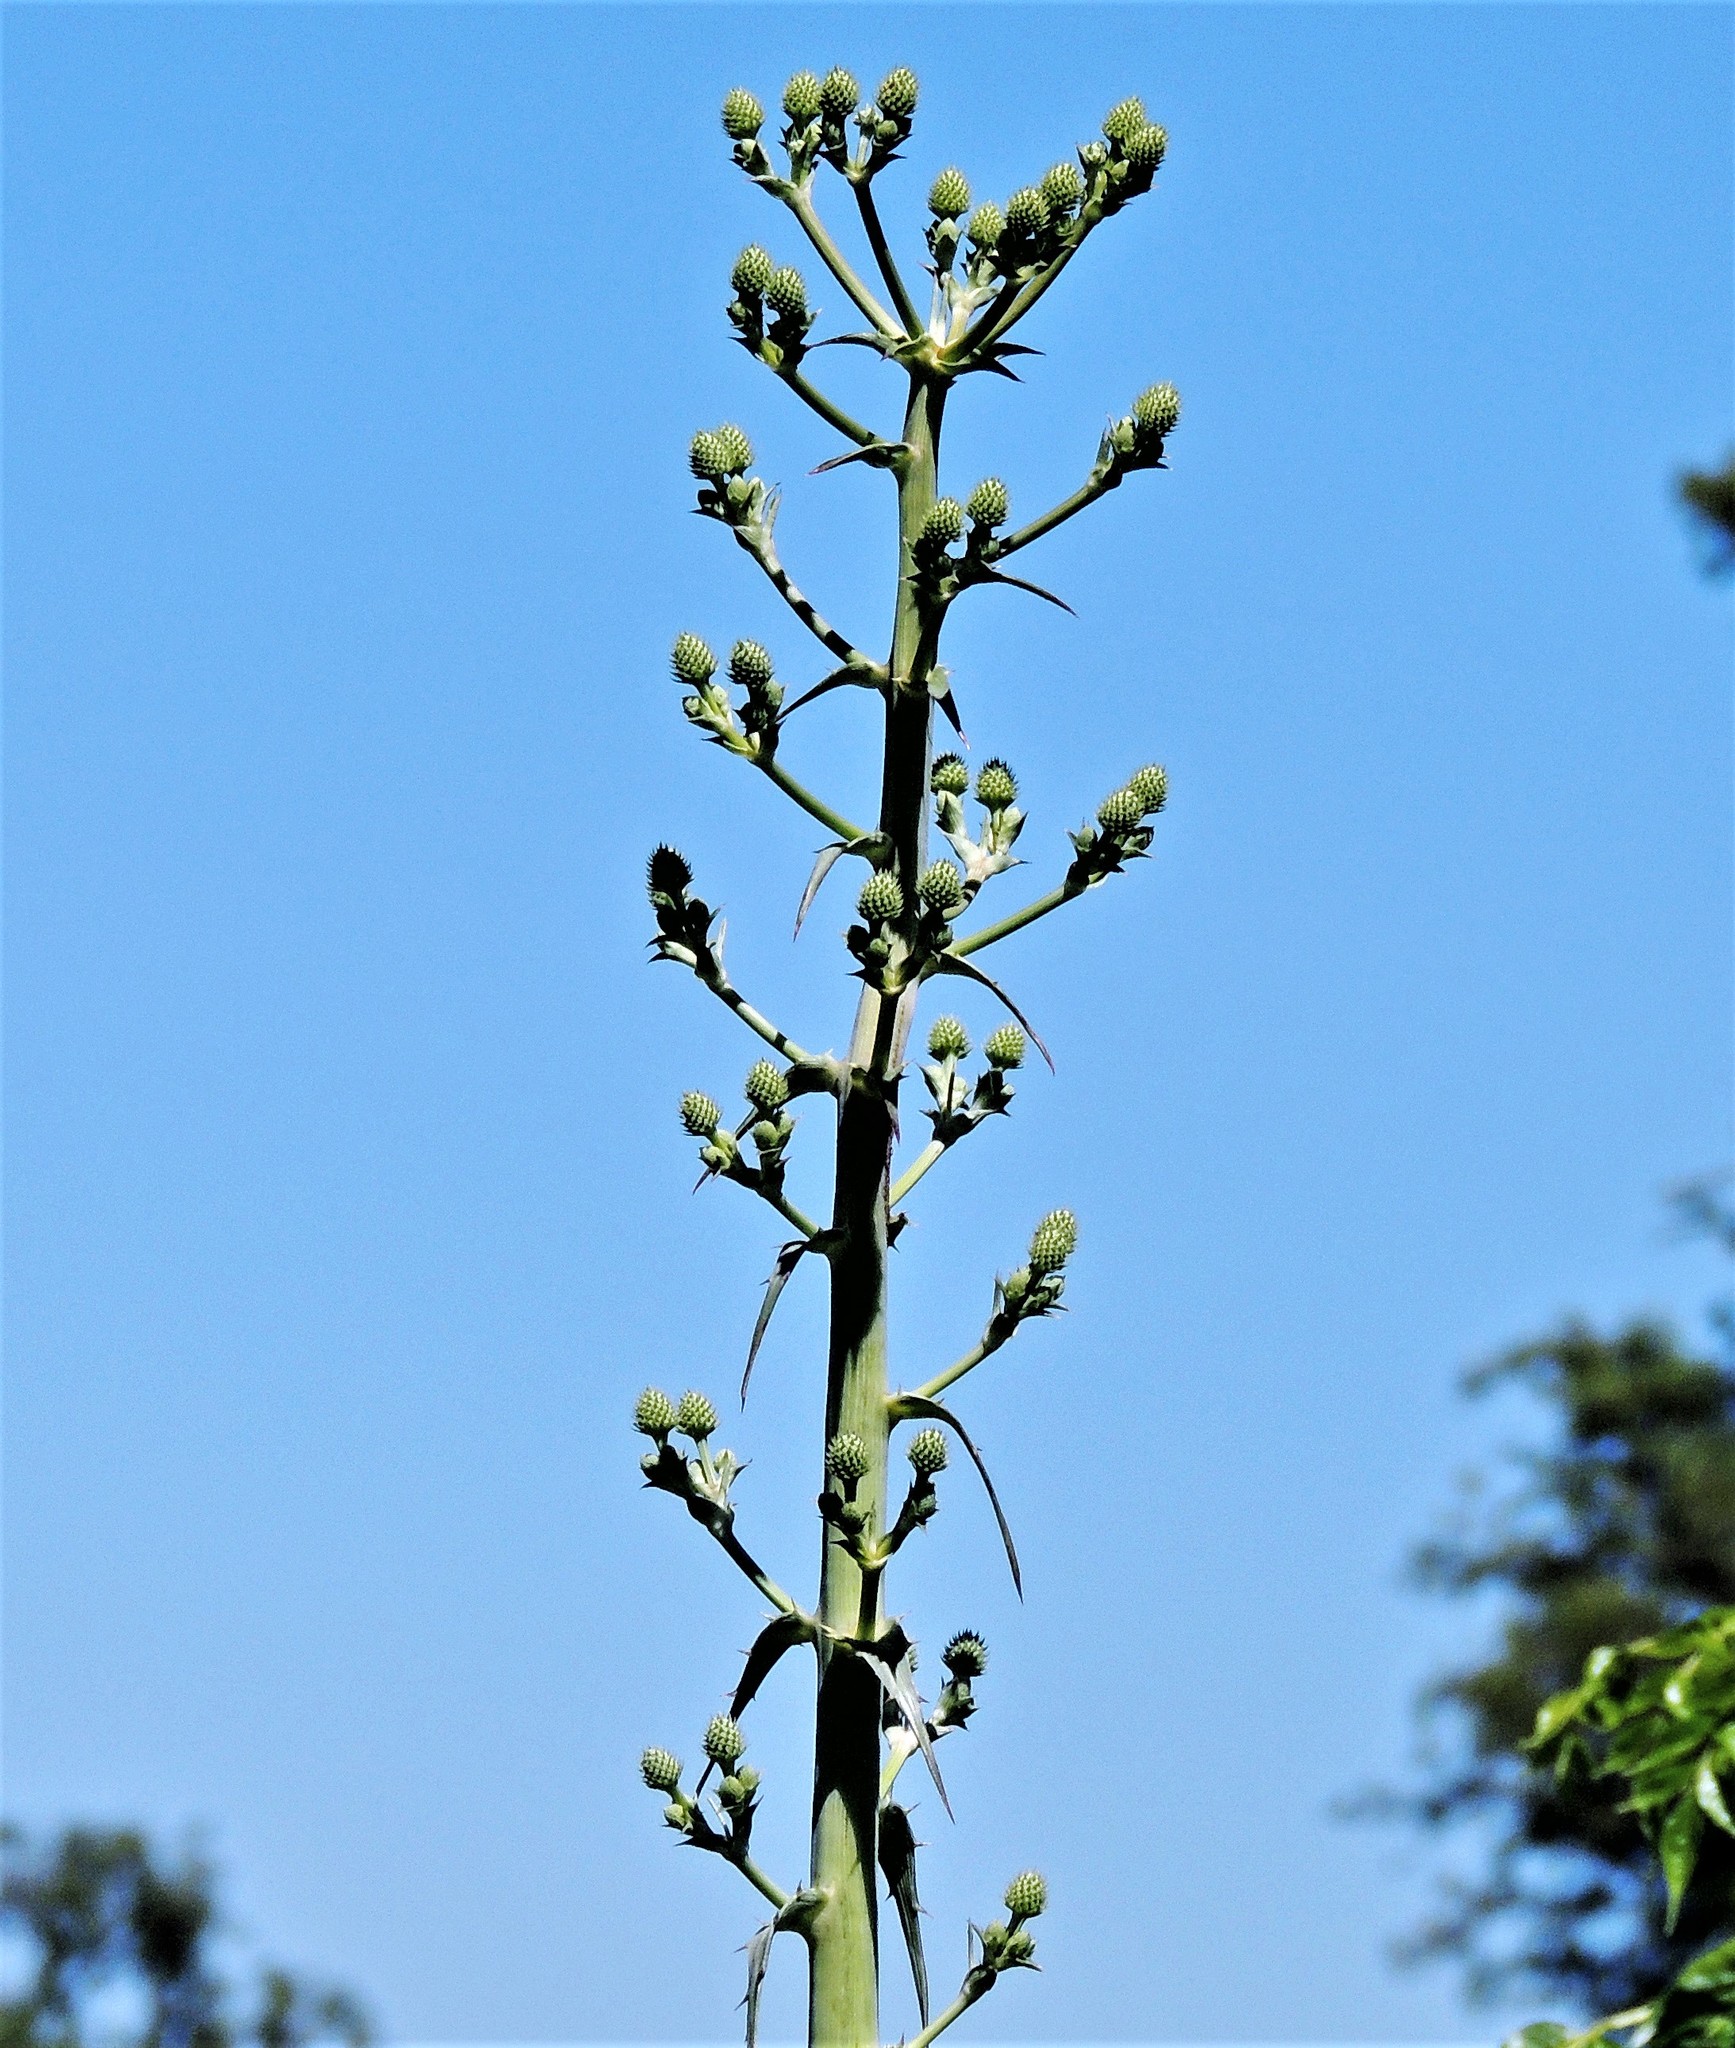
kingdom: Plantae
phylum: Tracheophyta
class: Magnoliopsida
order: Apiales
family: Apiaceae
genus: Eryngium
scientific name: Eryngium horridum
